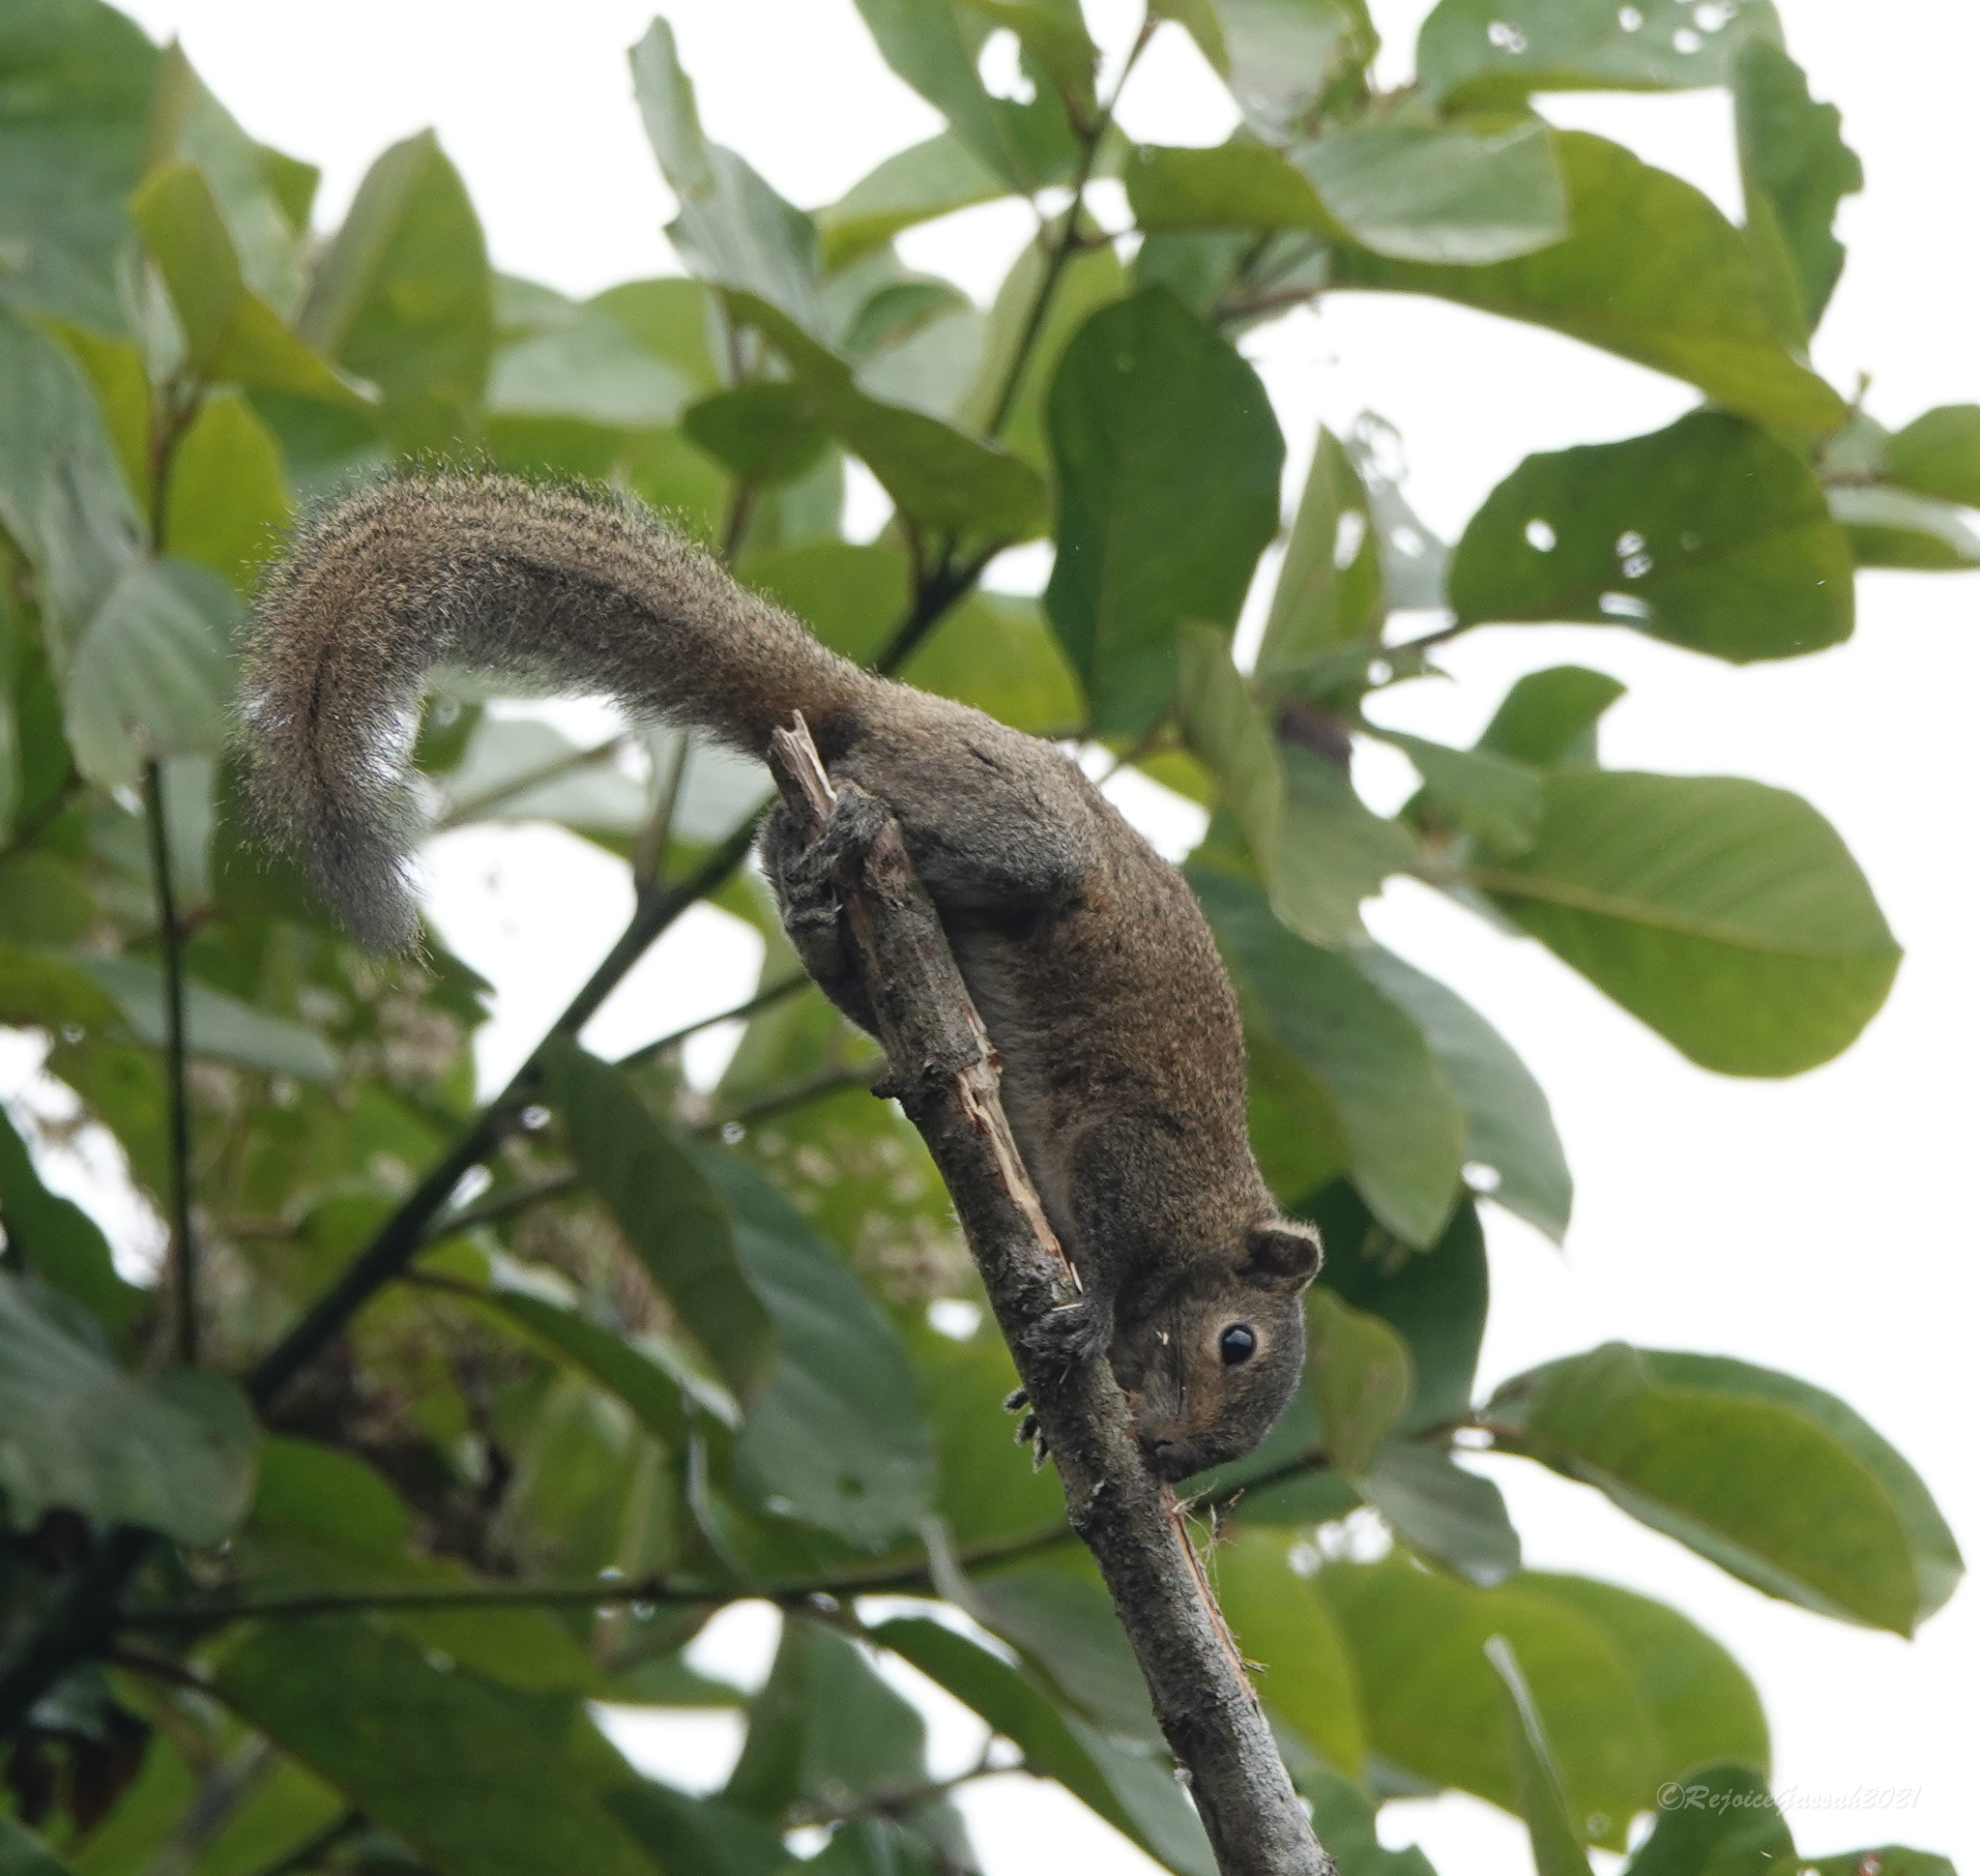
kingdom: Animalia
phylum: Chordata
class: Mammalia
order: Rodentia
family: Sciuridae
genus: Callosciurus
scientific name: Callosciurus pygerythrus
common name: Irrawaddy squirrel
